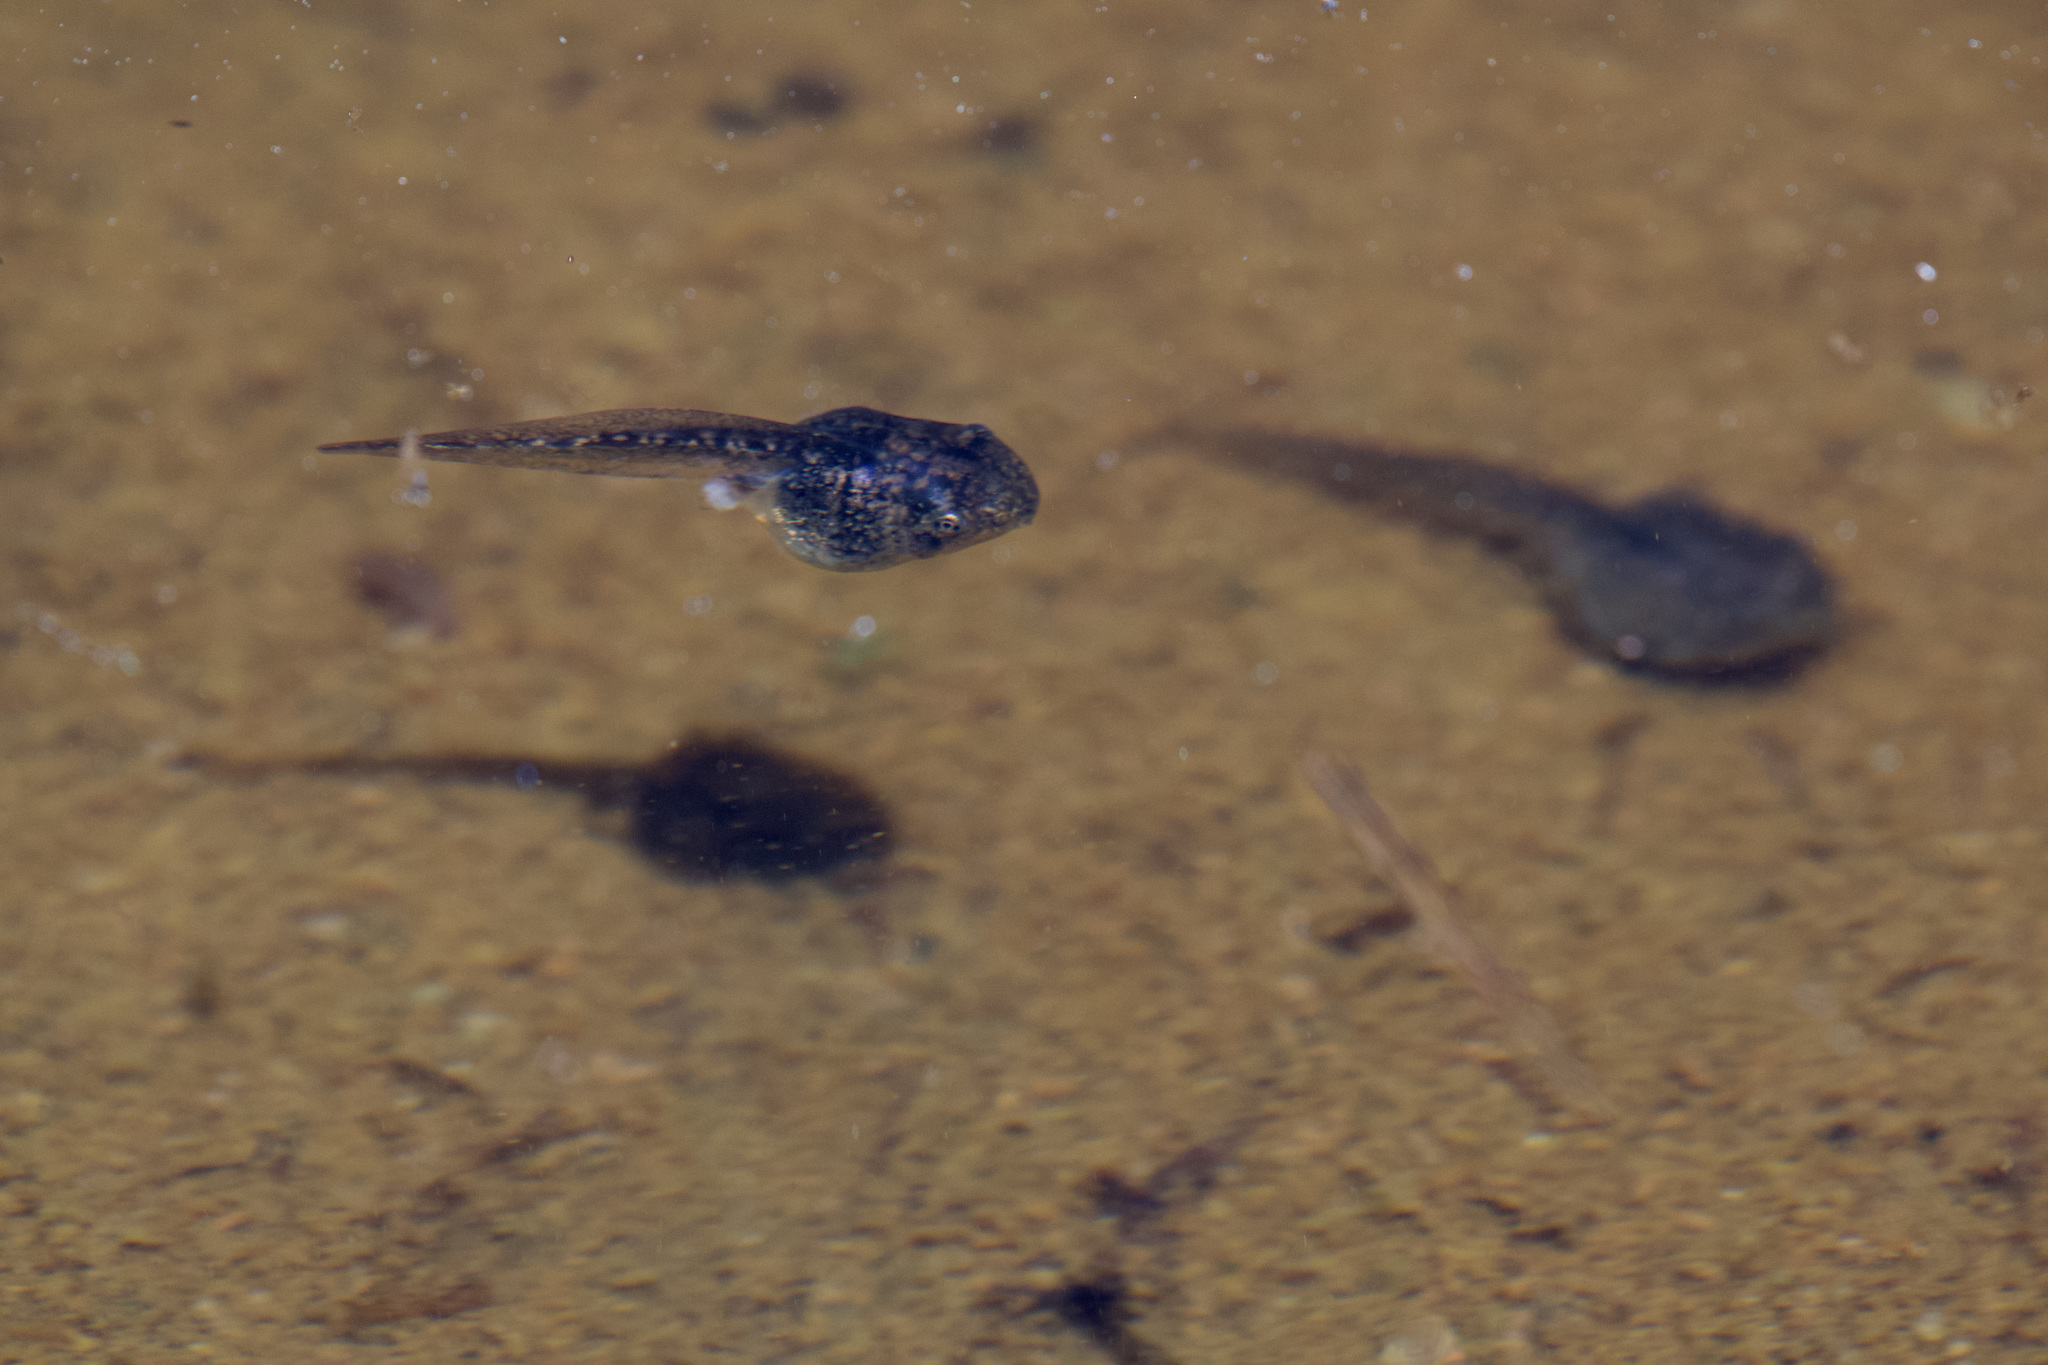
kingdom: Animalia
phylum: Chordata
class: Amphibia
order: Anura
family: Hylidae
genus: Pseudacris
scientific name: Pseudacris regilla
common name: Pacific chorus frog
